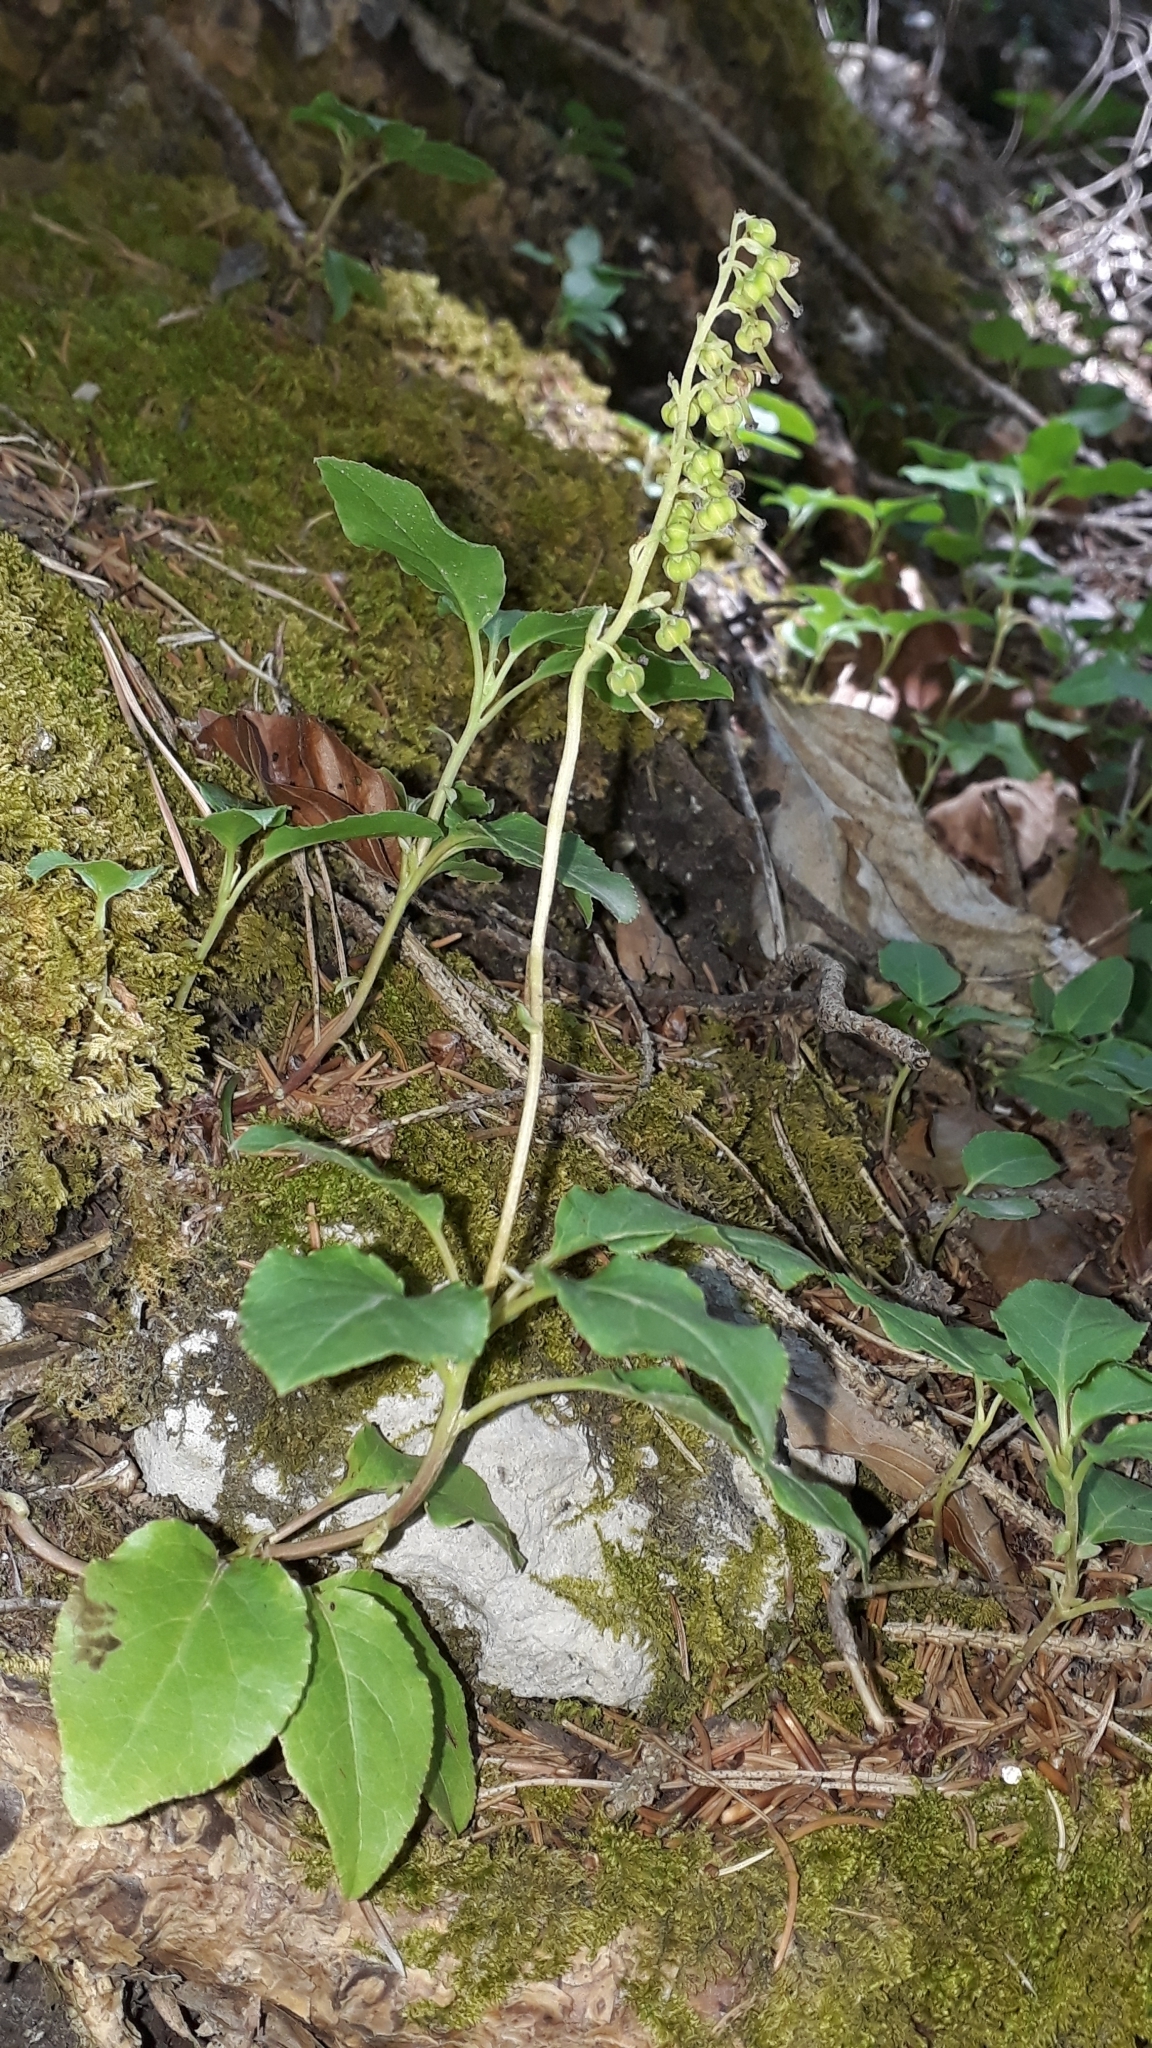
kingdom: Plantae
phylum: Tracheophyta
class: Magnoliopsida
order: Ericales
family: Ericaceae
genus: Orthilia
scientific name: Orthilia secunda
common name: One-sided orthilia
